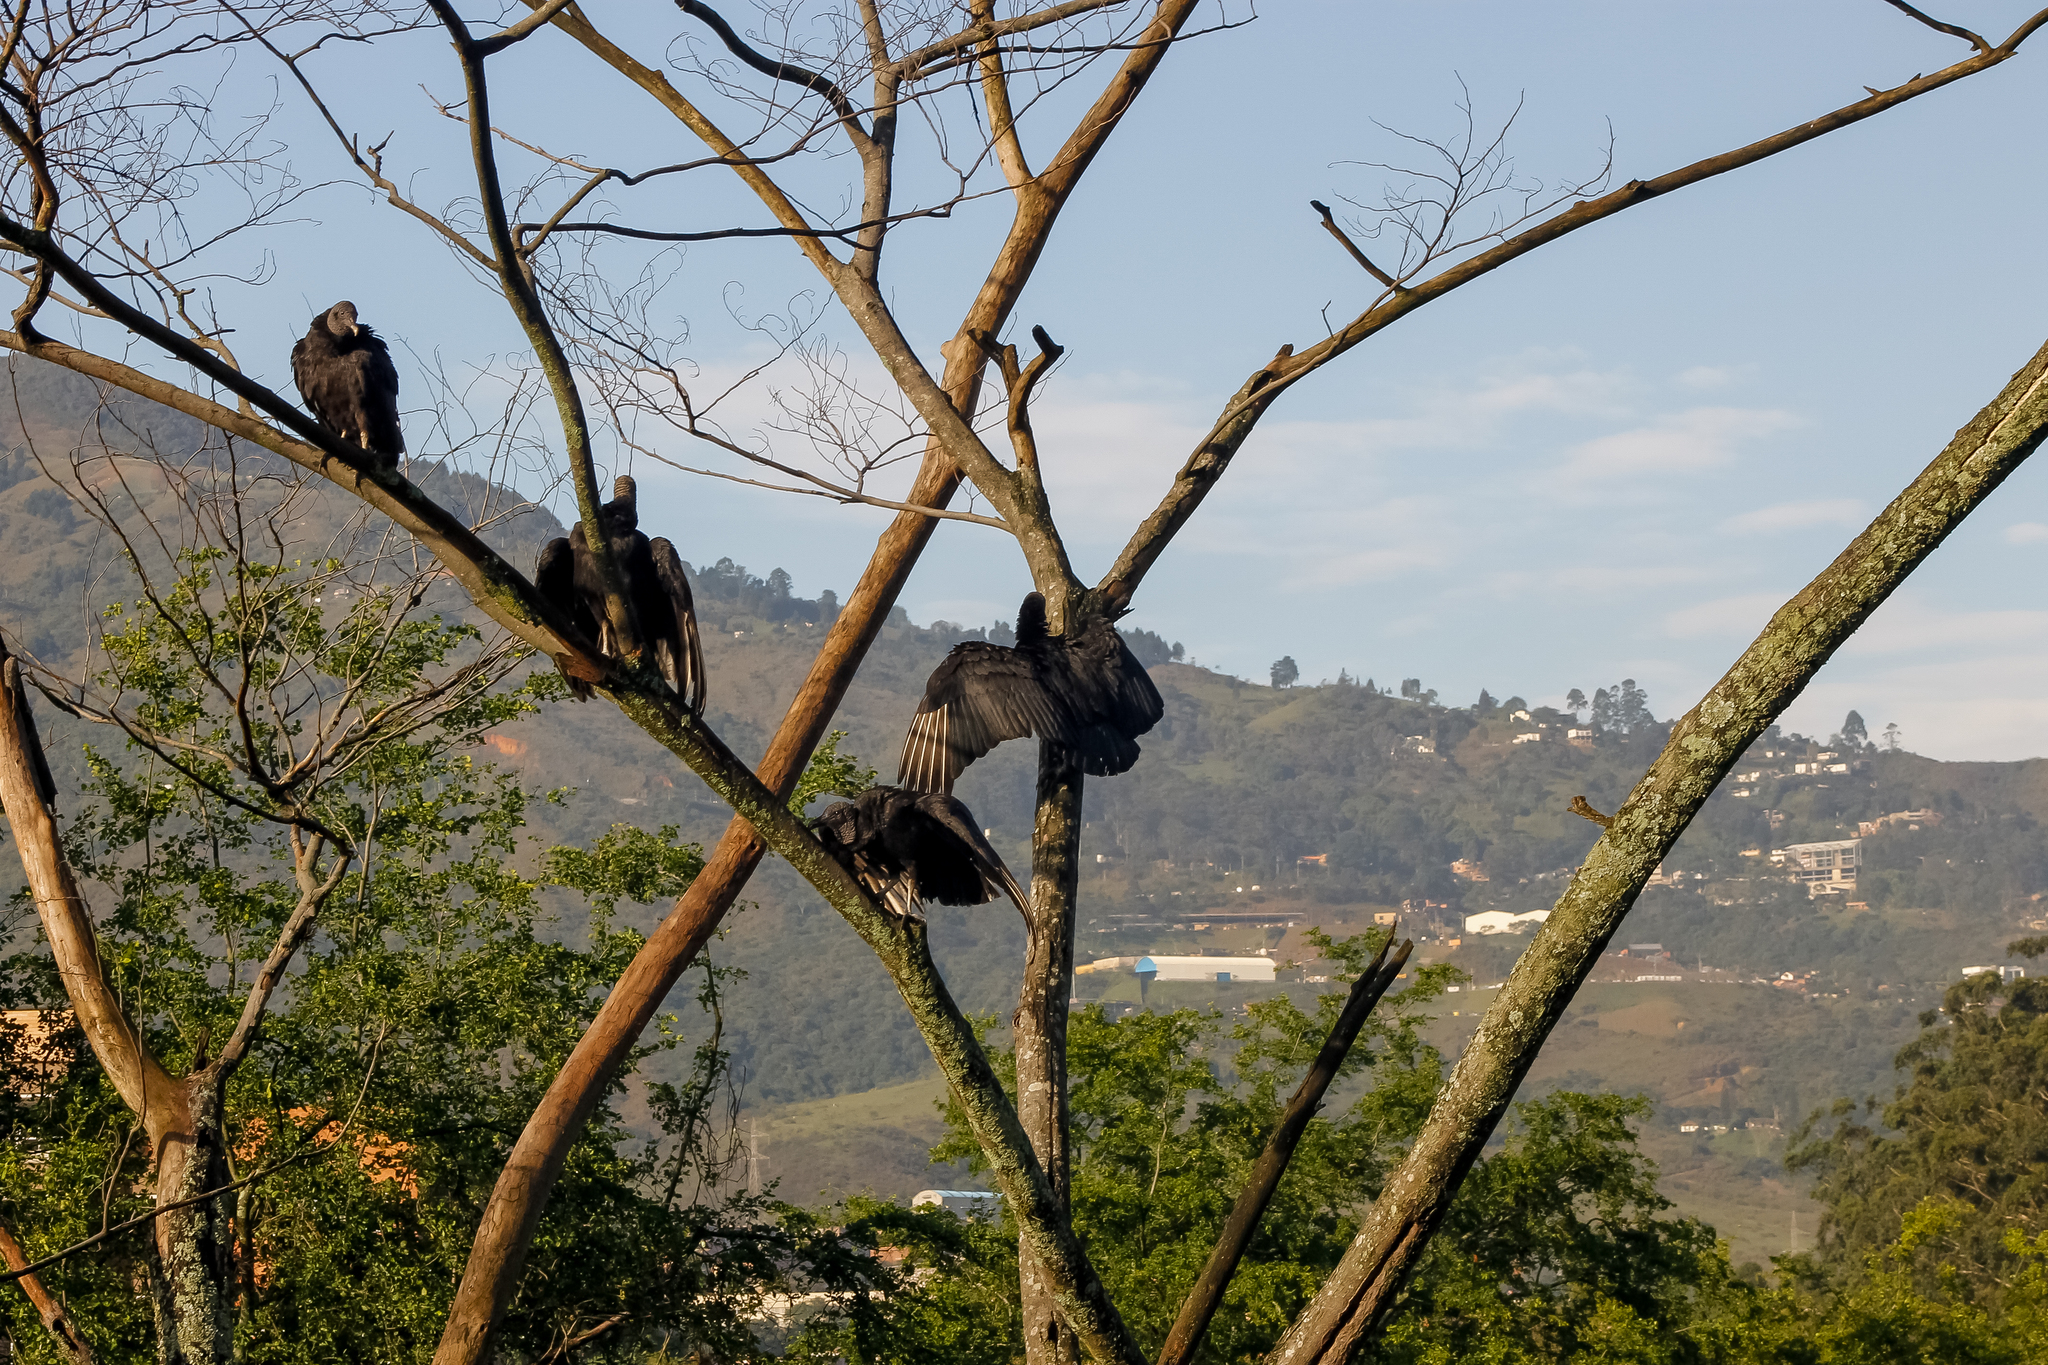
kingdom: Animalia
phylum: Chordata
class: Aves
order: Accipitriformes
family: Cathartidae
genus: Coragyps
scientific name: Coragyps atratus
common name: Black vulture
